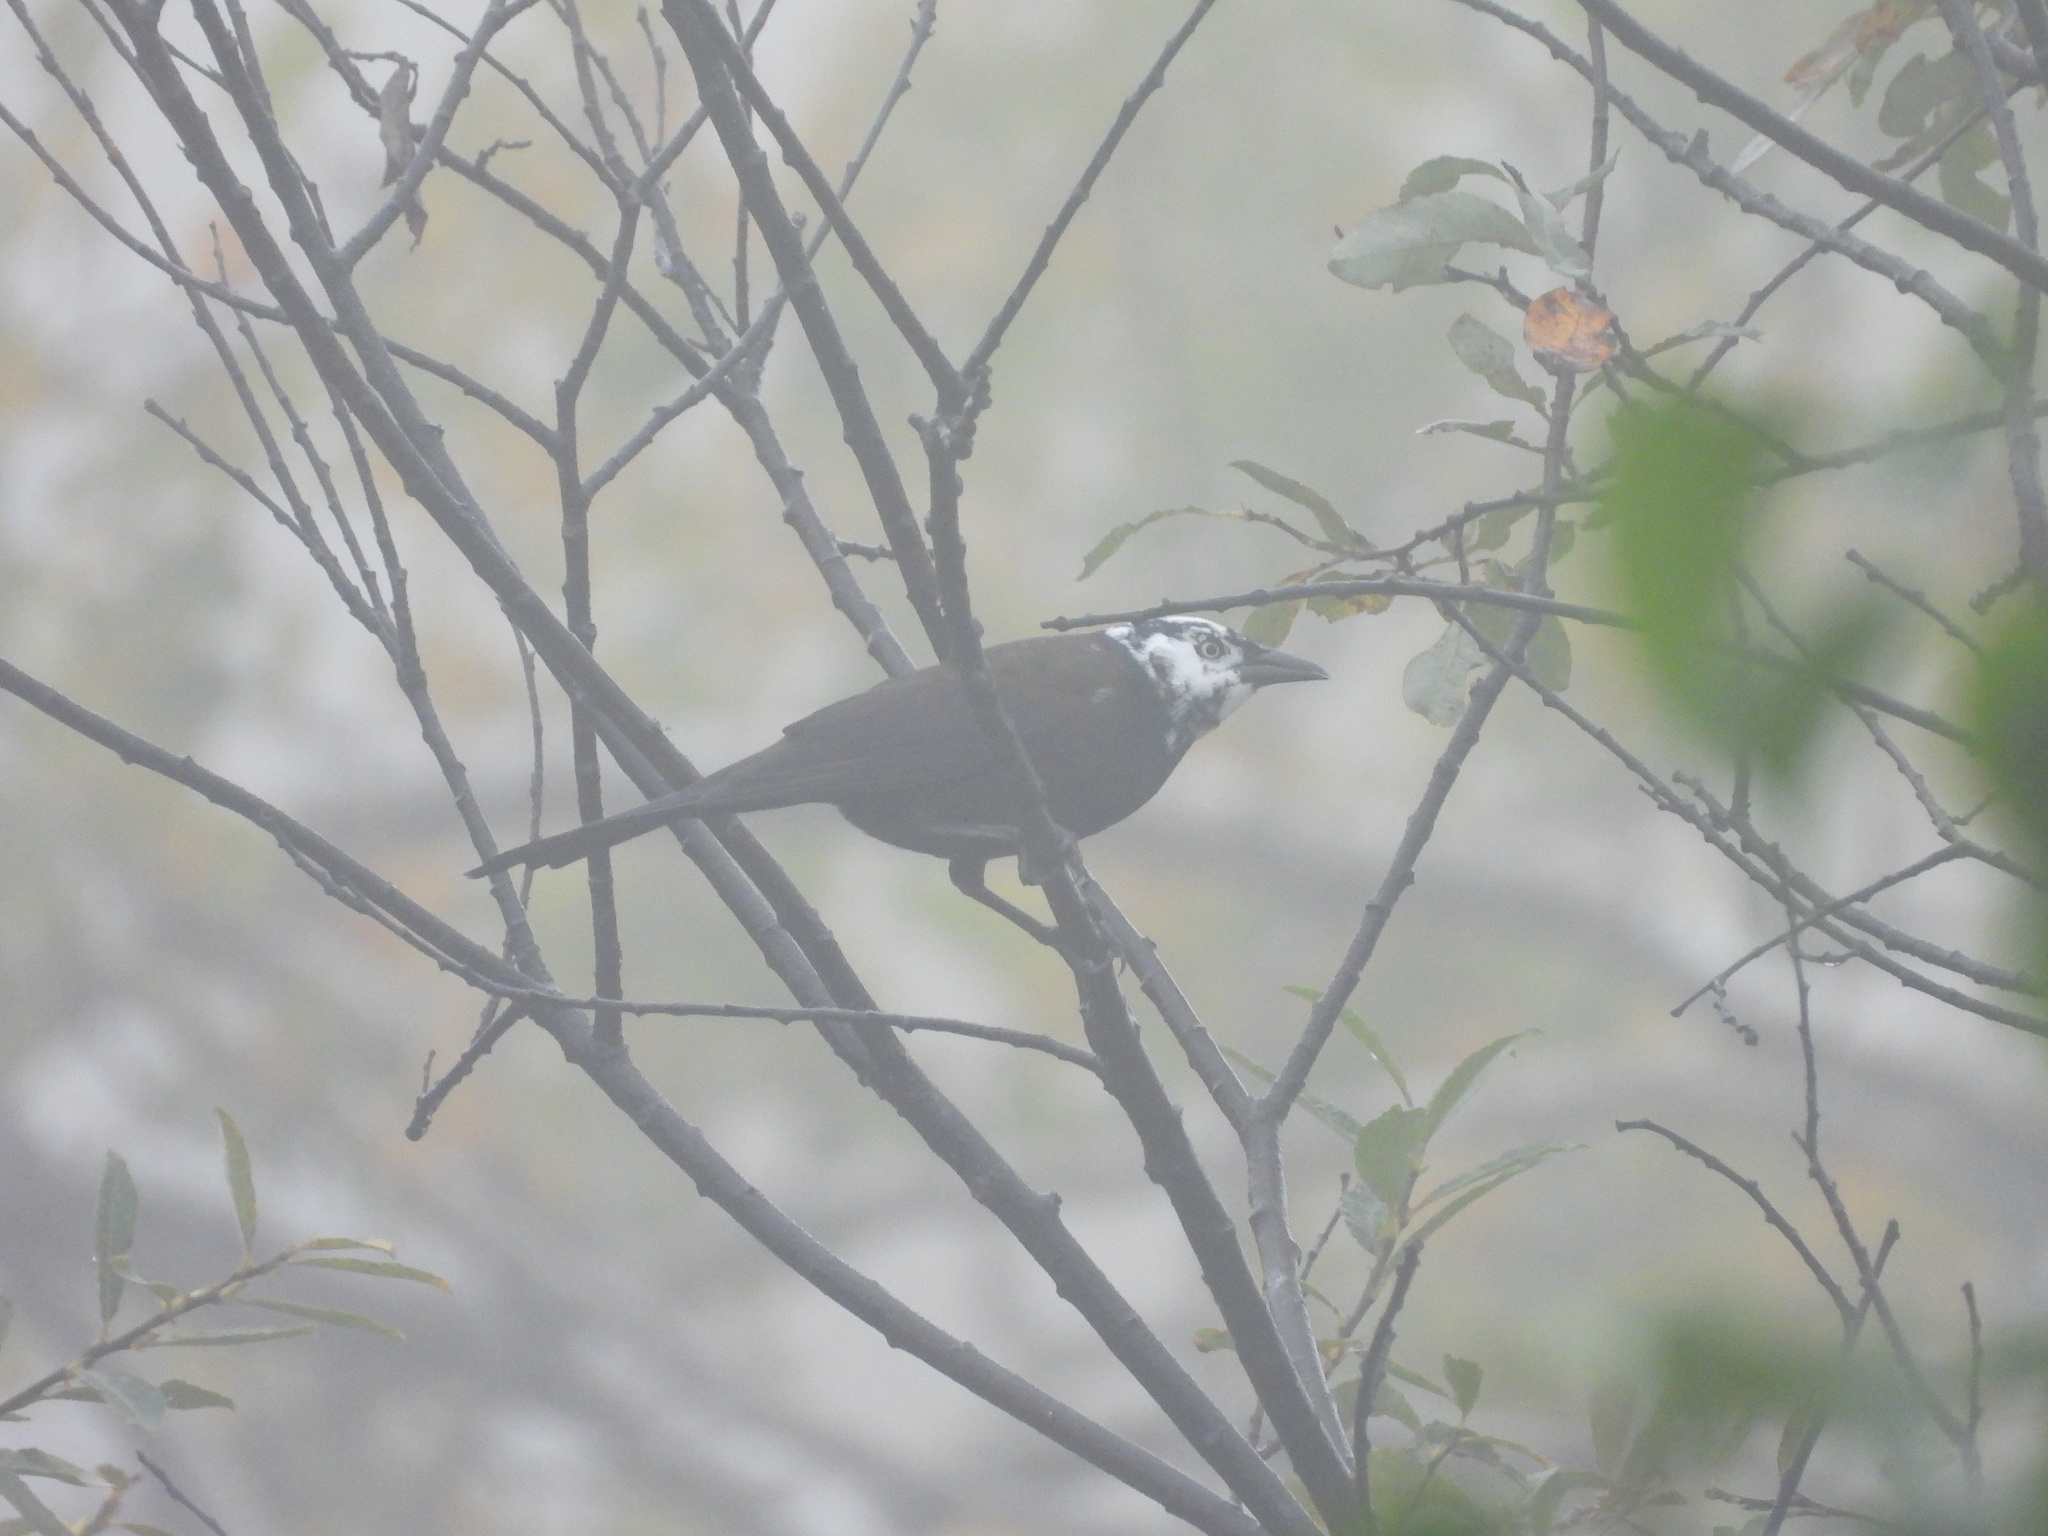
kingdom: Animalia
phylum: Chordata
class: Aves
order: Passeriformes
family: Icteridae
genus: Quiscalus
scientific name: Quiscalus quiscula
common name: Common grackle
